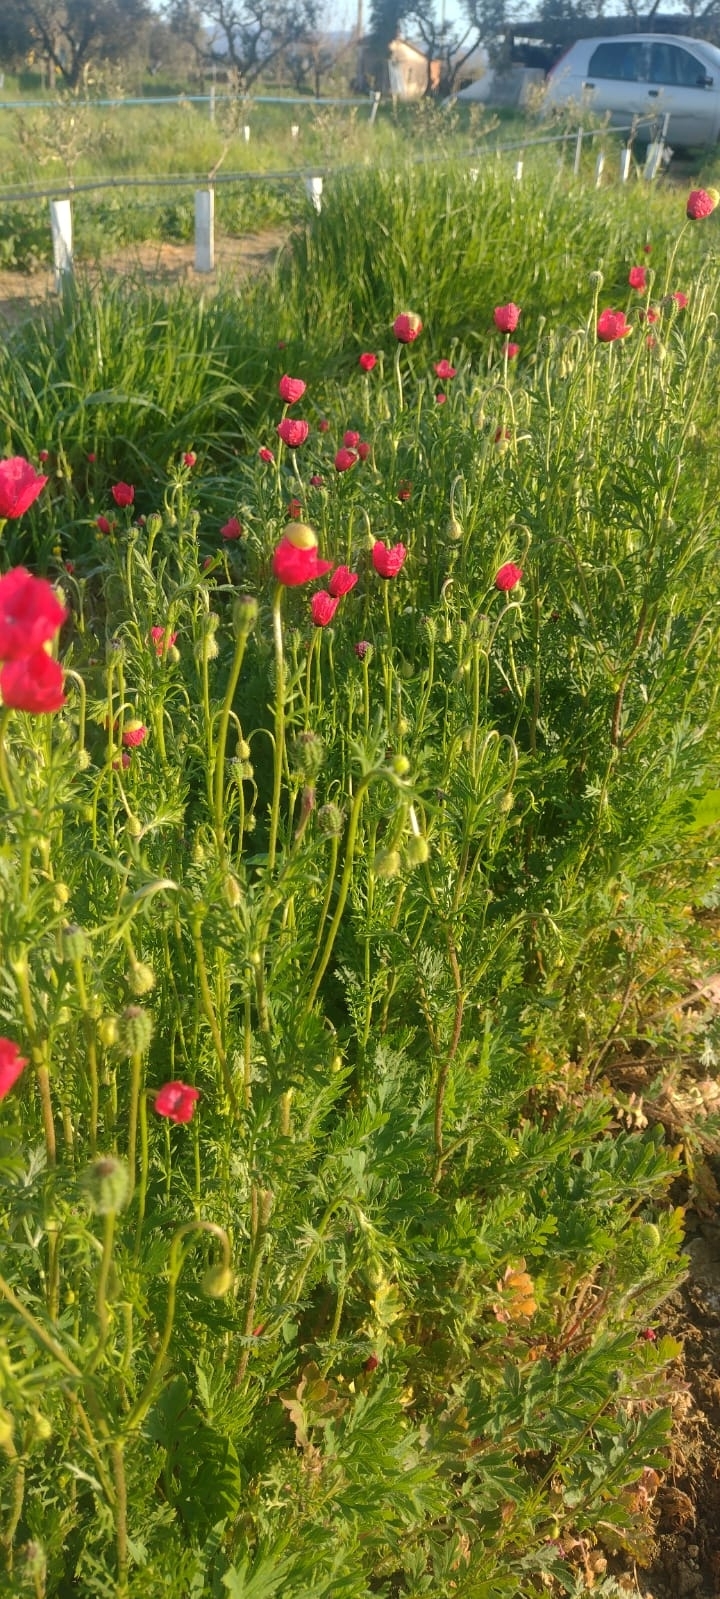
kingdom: Plantae
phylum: Tracheophyta
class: Magnoliopsida
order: Ranunculales
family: Papaveraceae
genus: Roemeria
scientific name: Roemeria hispida
